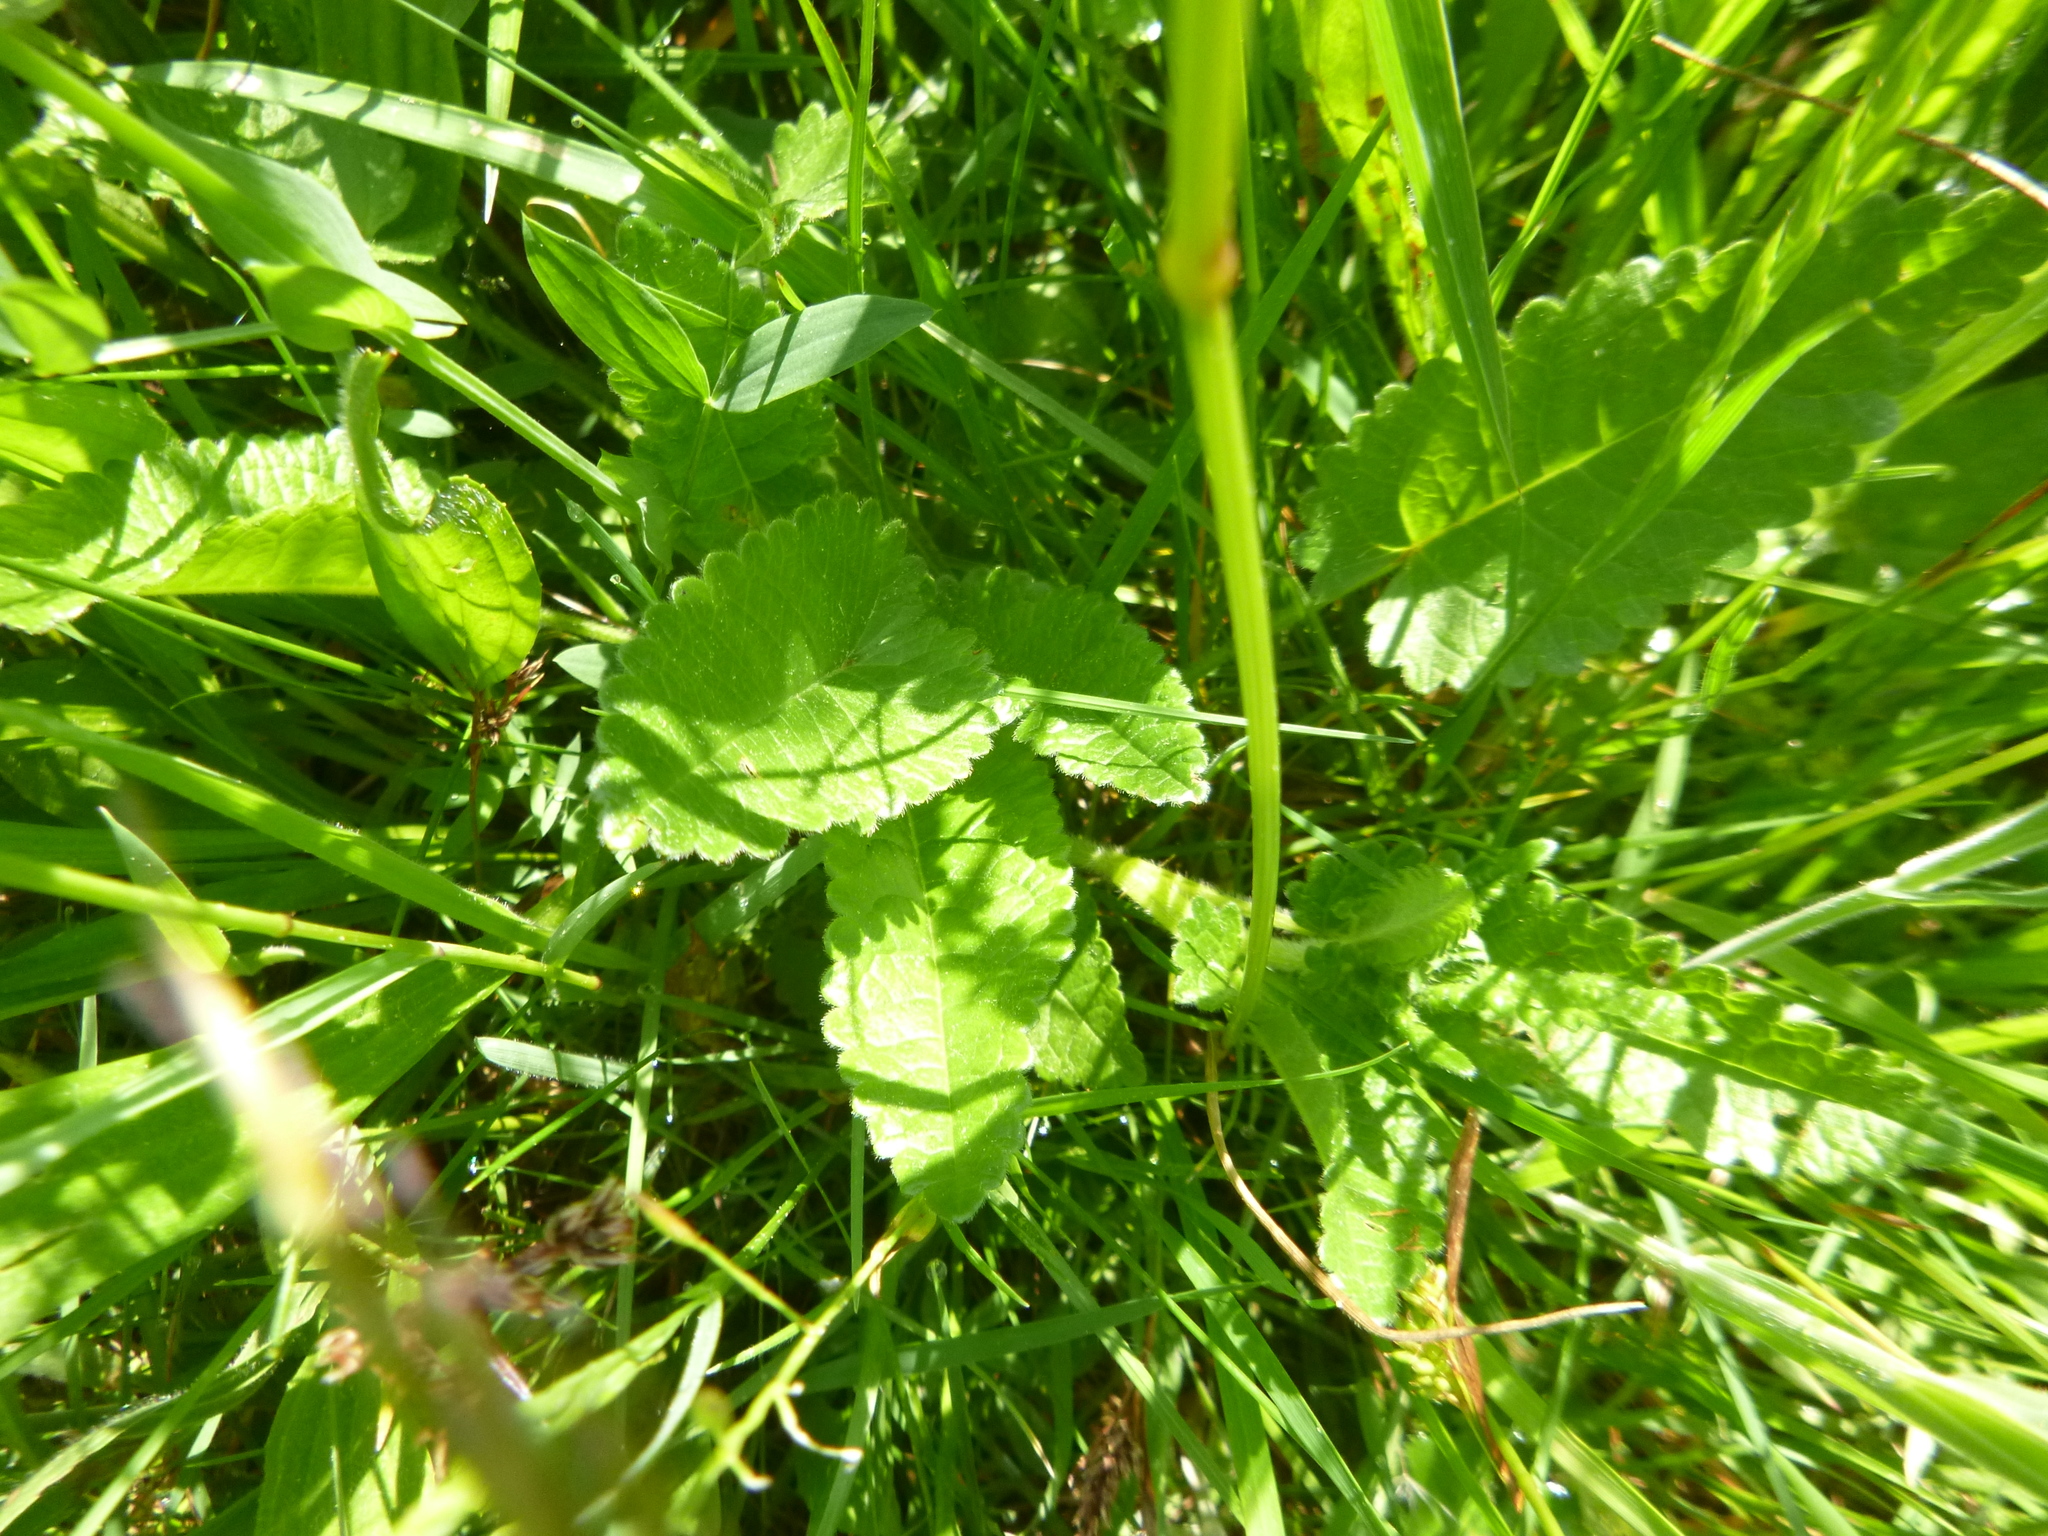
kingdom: Plantae
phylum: Tracheophyta
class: Magnoliopsida
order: Lamiales
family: Lamiaceae
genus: Betonica
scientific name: Betonica officinalis
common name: Bishop's-wort
